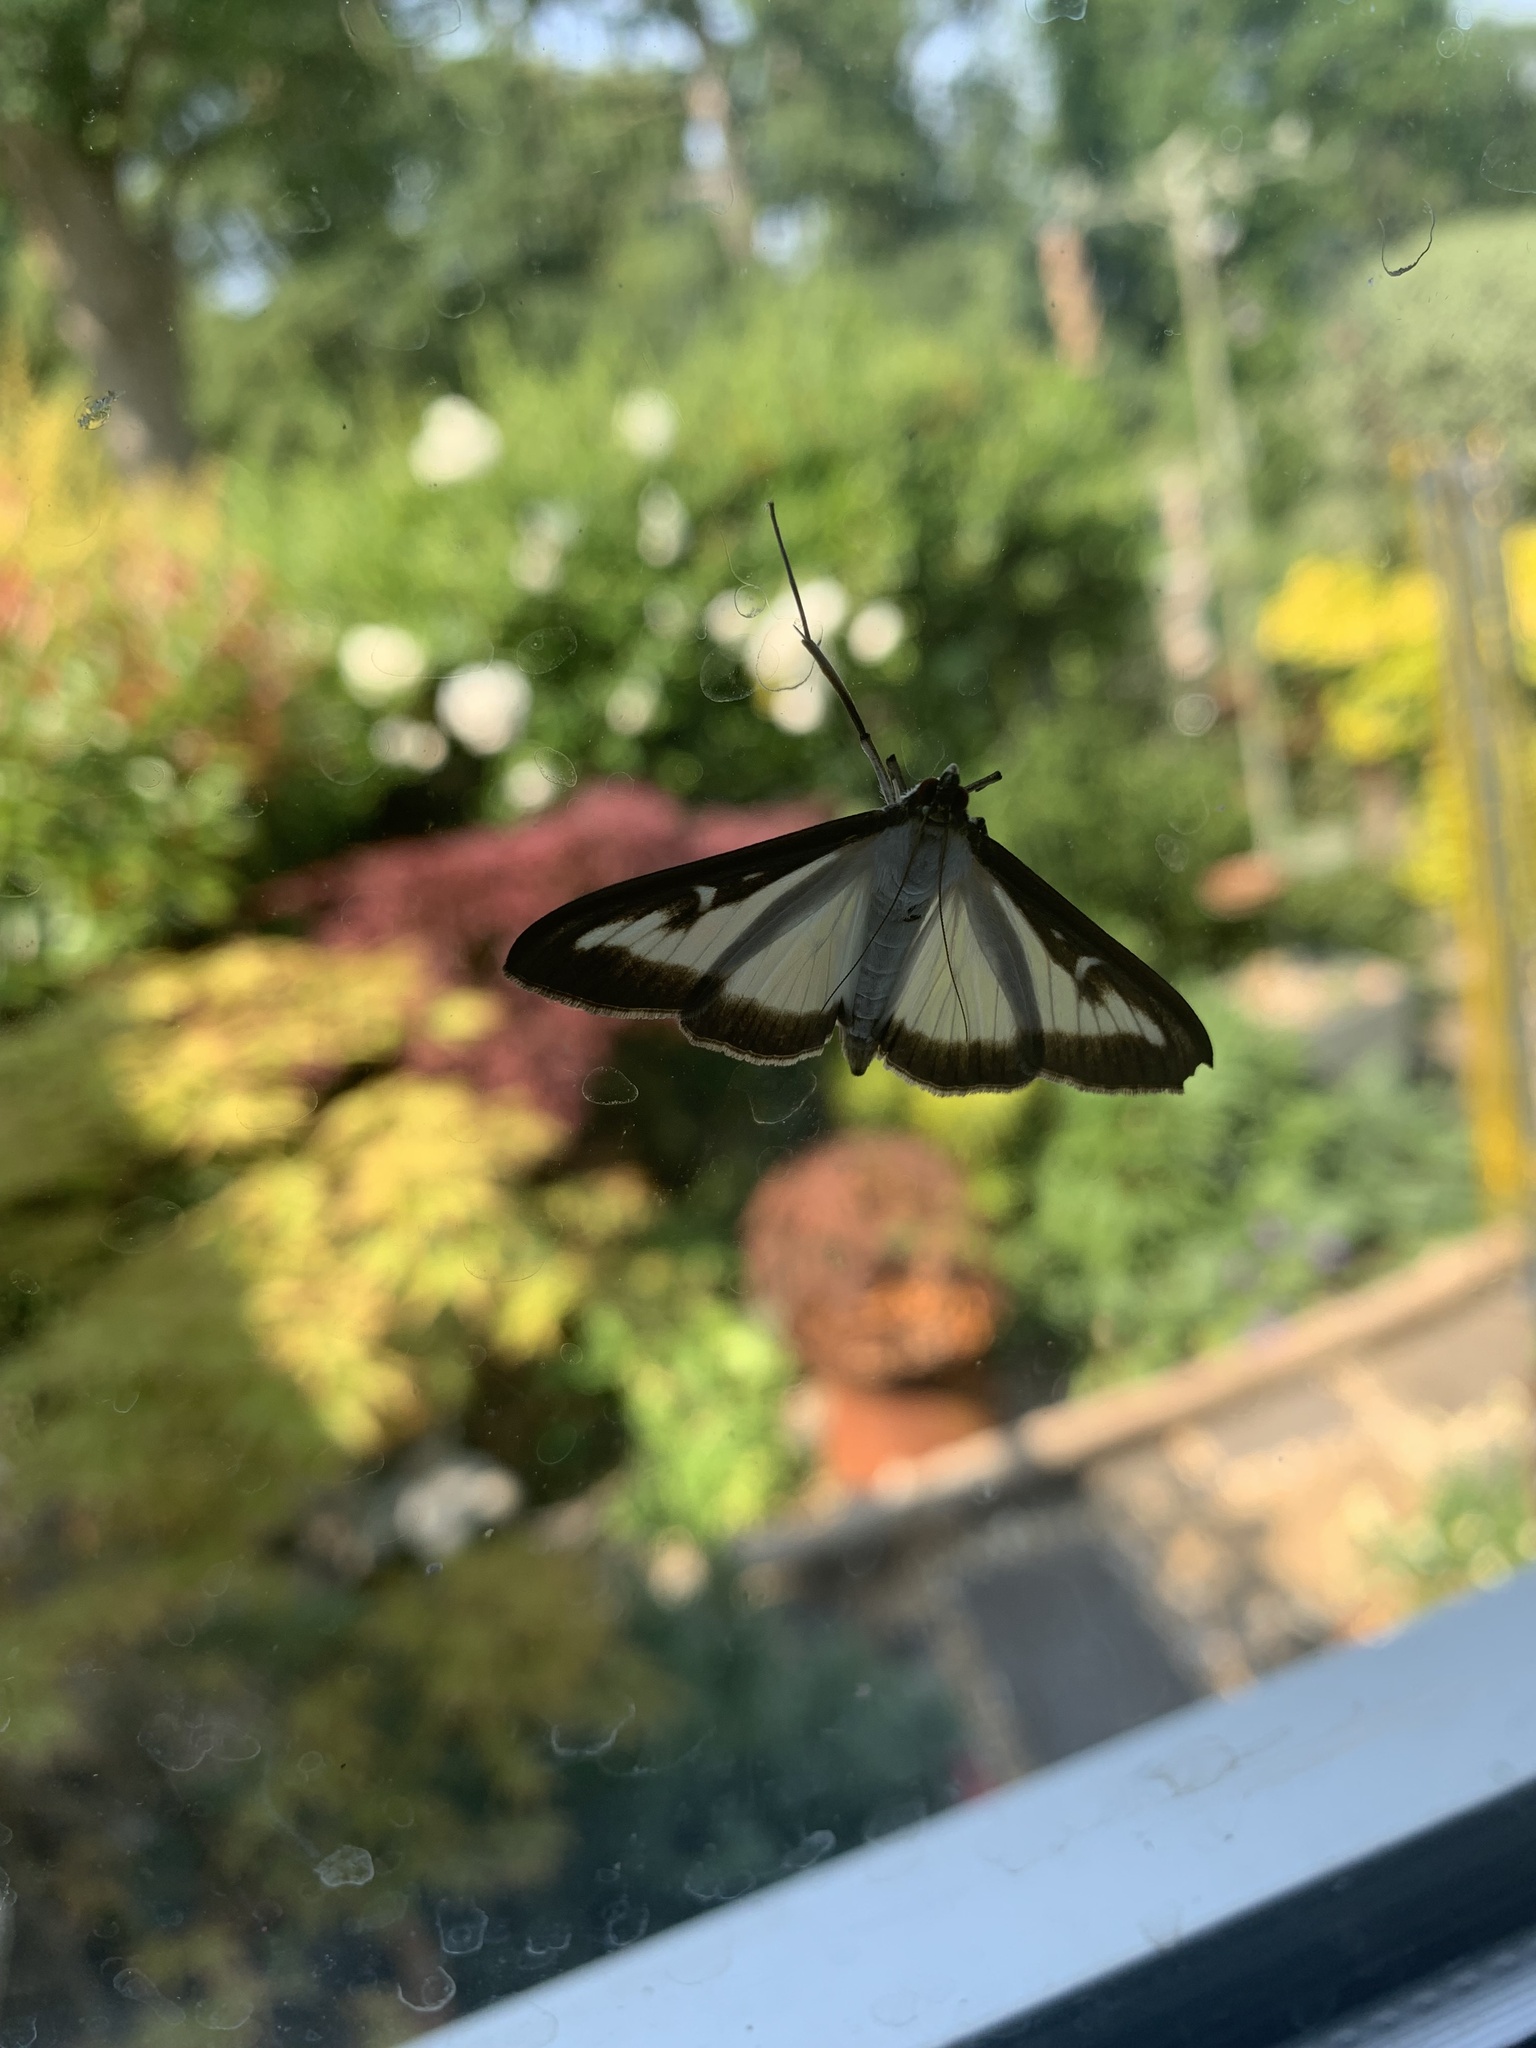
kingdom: Animalia
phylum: Arthropoda
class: Insecta
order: Lepidoptera
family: Crambidae
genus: Cydalima
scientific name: Cydalima perspectalis
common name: Box tree moth
